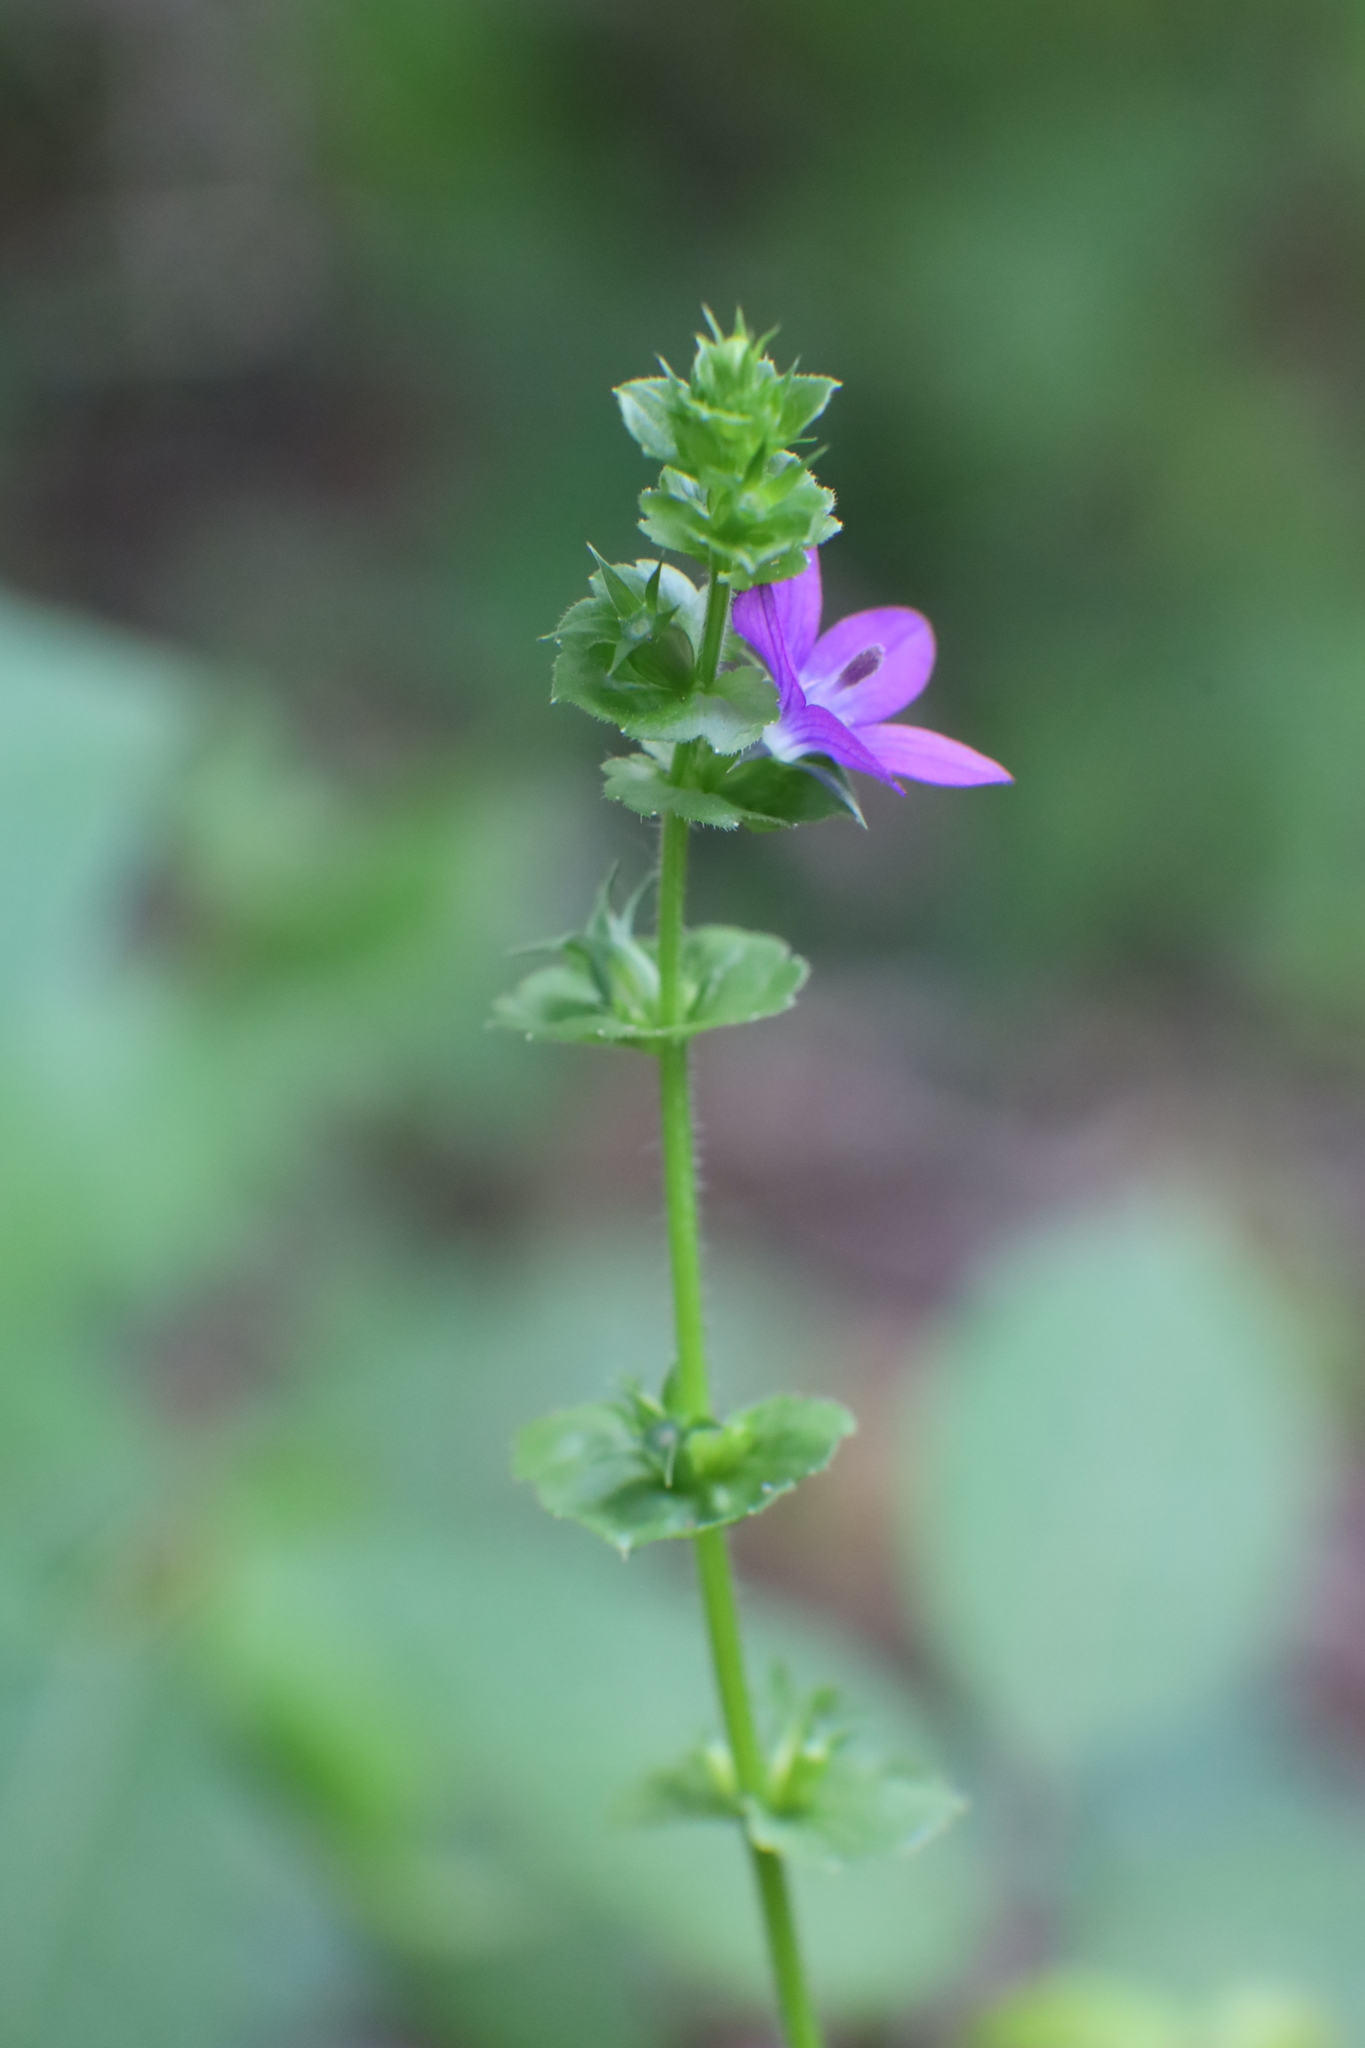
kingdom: Plantae
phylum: Tracheophyta
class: Magnoliopsida
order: Asterales
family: Campanulaceae
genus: Triodanis
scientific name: Triodanis perfoliata
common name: Clasping venus' looking-glass
